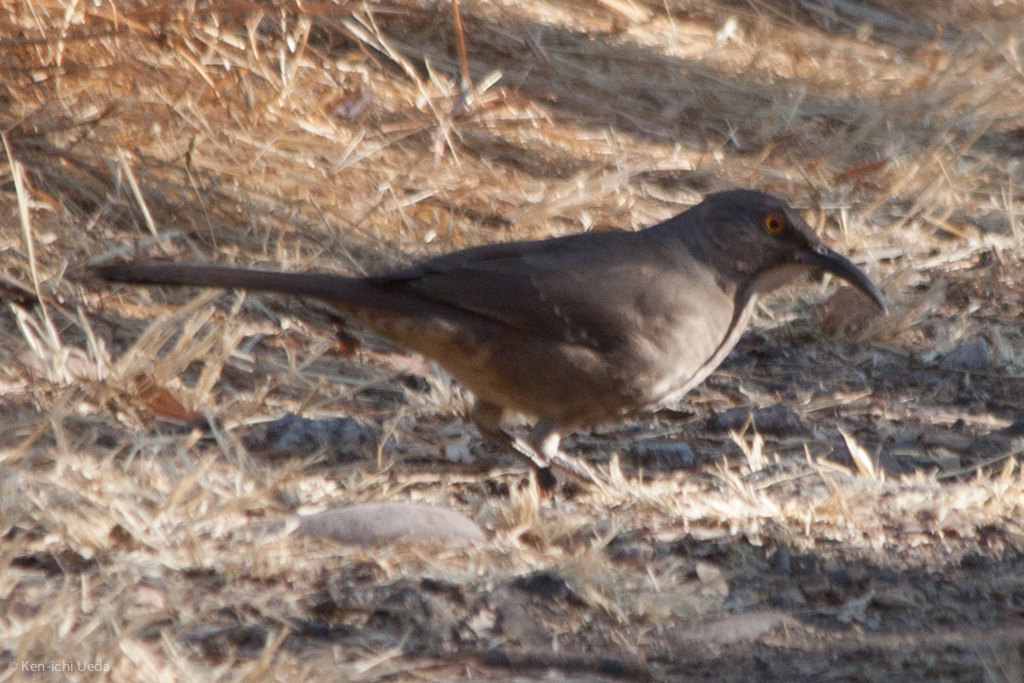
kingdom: Animalia
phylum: Chordata
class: Aves
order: Passeriformes
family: Mimidae
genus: Toxostoma
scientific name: Toxostoma curvirostre
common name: Curve-billed thrasher
